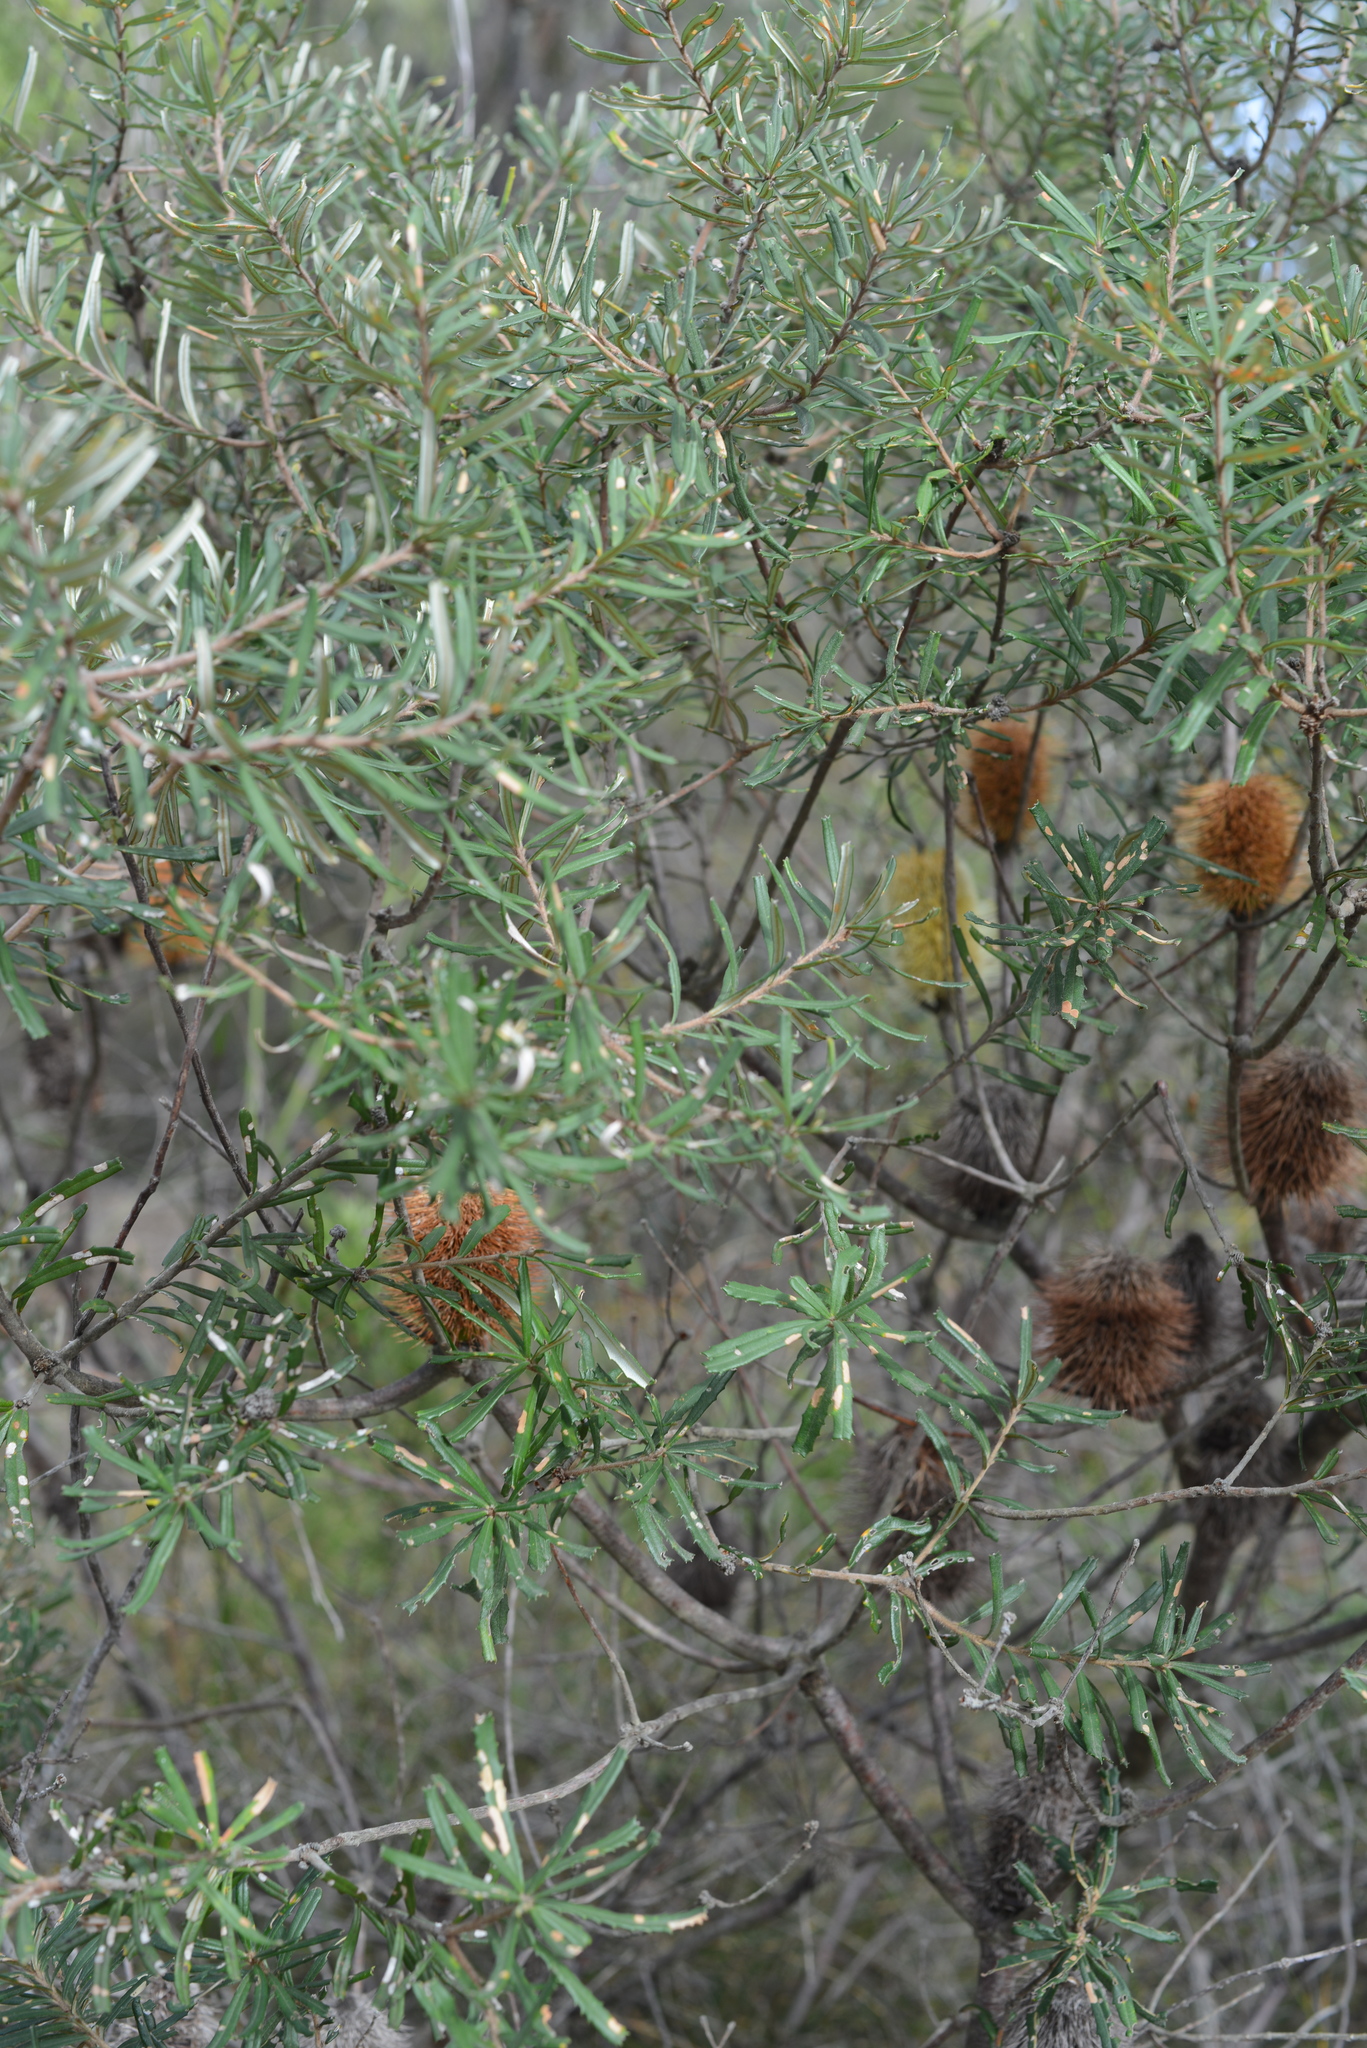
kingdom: Plantae
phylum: Tracheophyta
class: Magnoliopsida
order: Proteales
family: Proteaceae
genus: Banksia
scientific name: Banksia marginata
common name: Silver banksia
